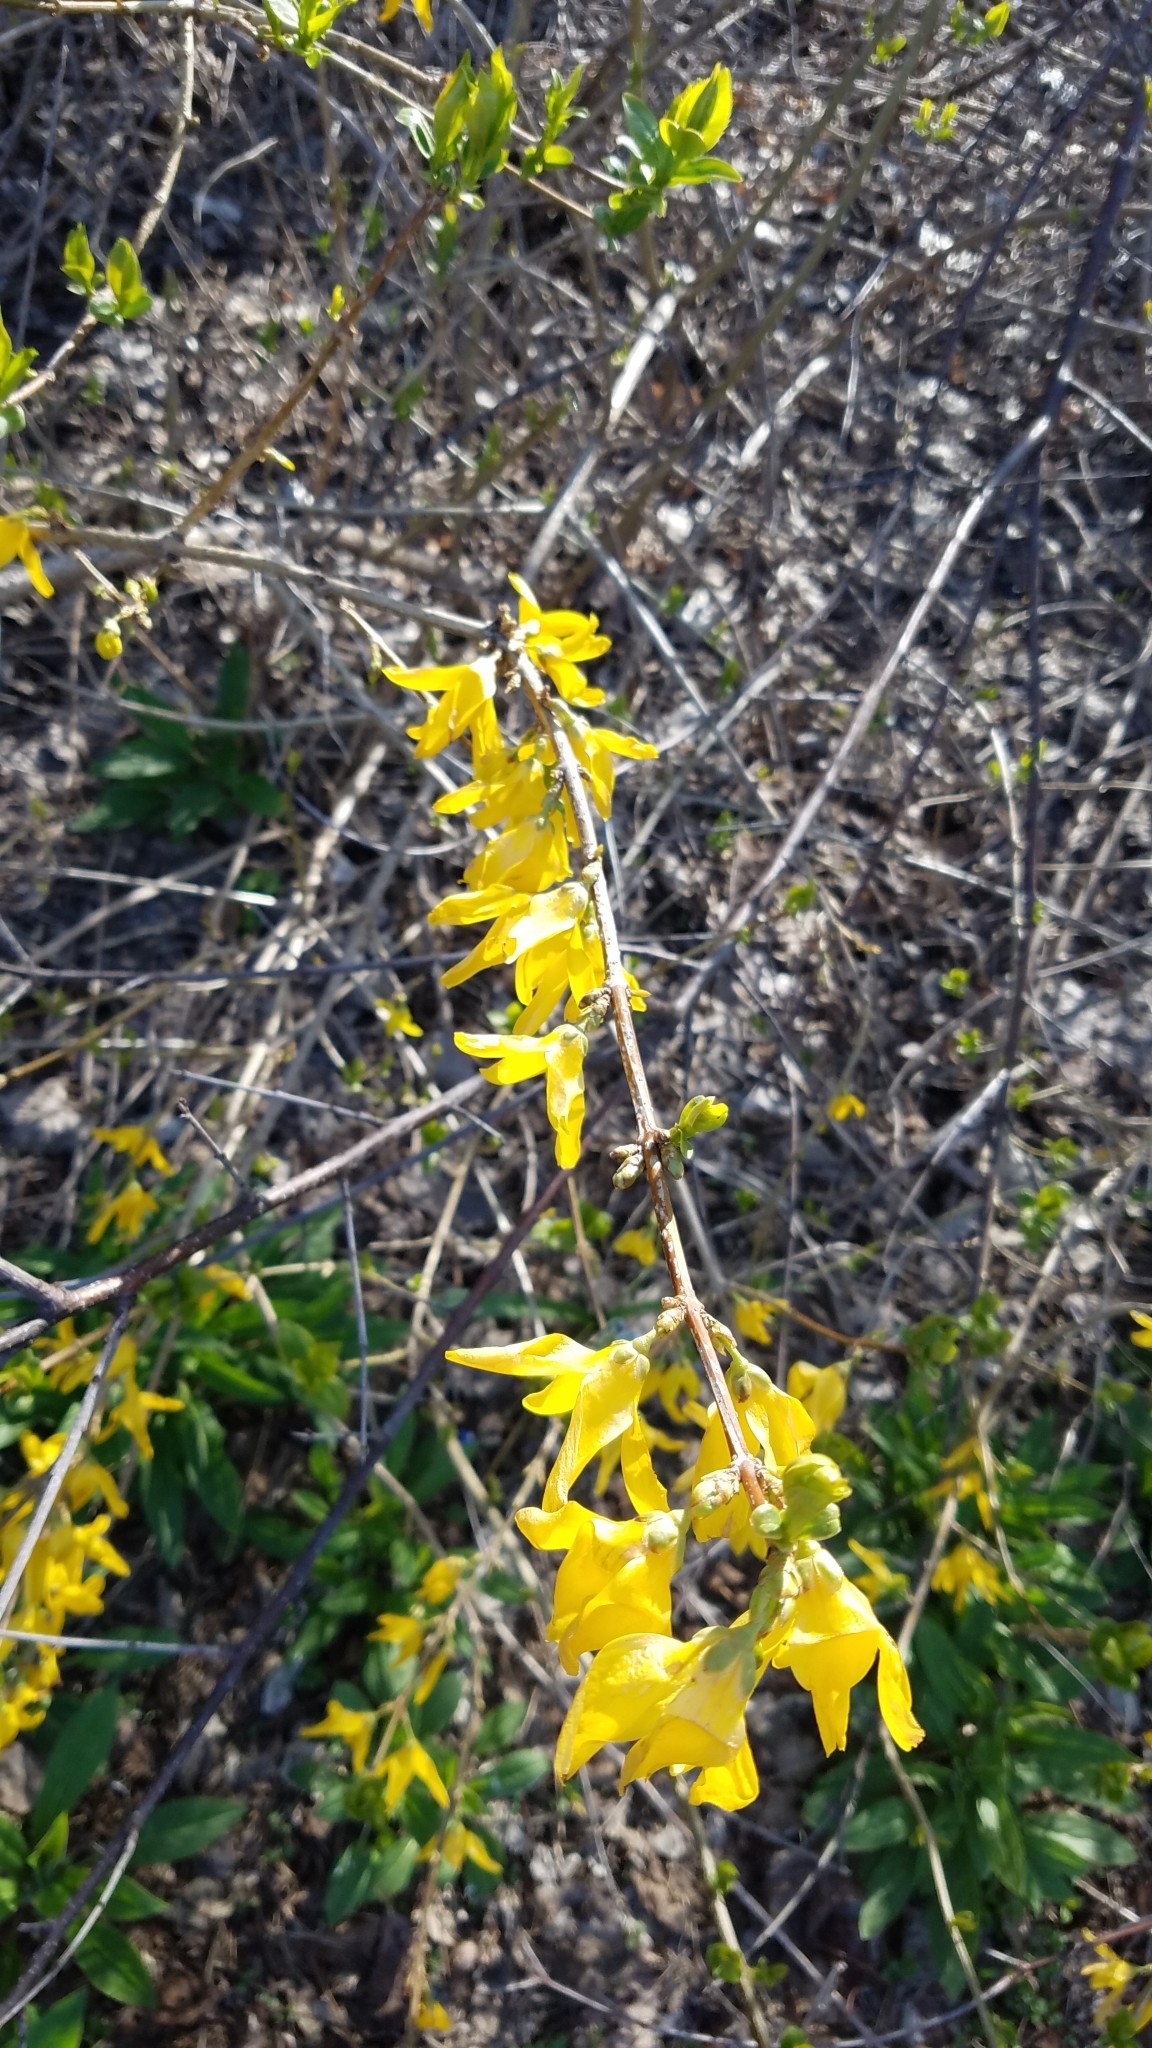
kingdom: Plantae
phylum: Tracheophyta
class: Magnoliopsida
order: Lamiales
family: Oleaceae
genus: Forsythia
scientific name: Forsythia intermedia
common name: Forsythia
